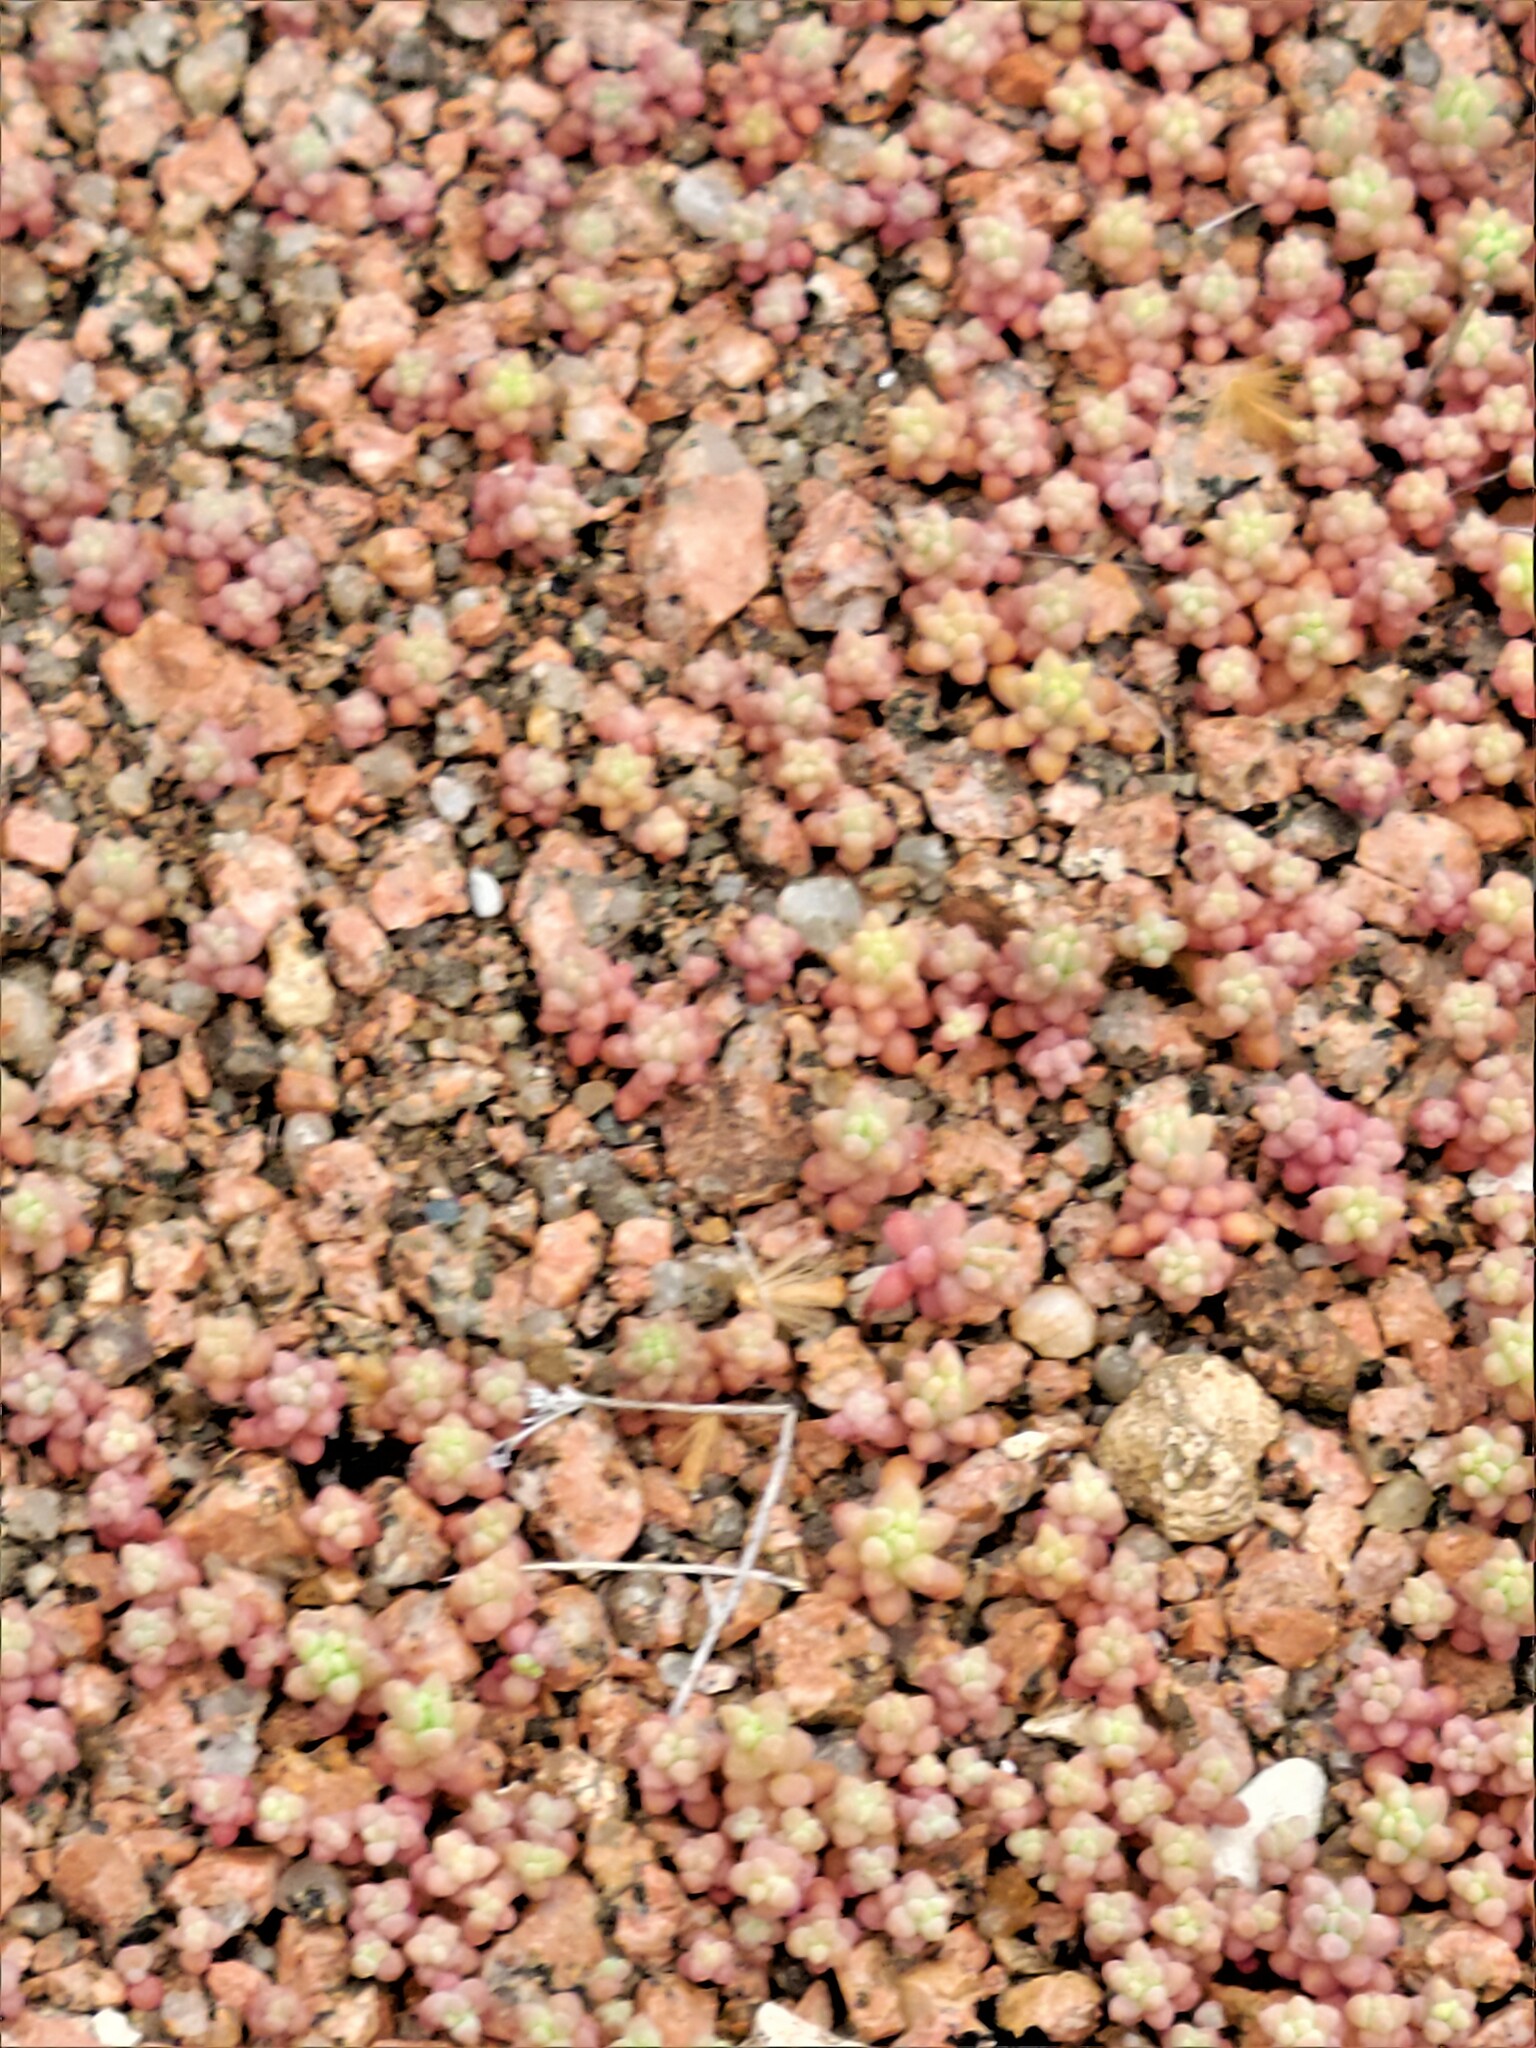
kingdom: Plantae
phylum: Tracheophyta
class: Magnoliopsida
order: Saxifragales
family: Crassulaceae
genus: Sedum
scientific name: Sedum nuttallii
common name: Yellow stonecrop
